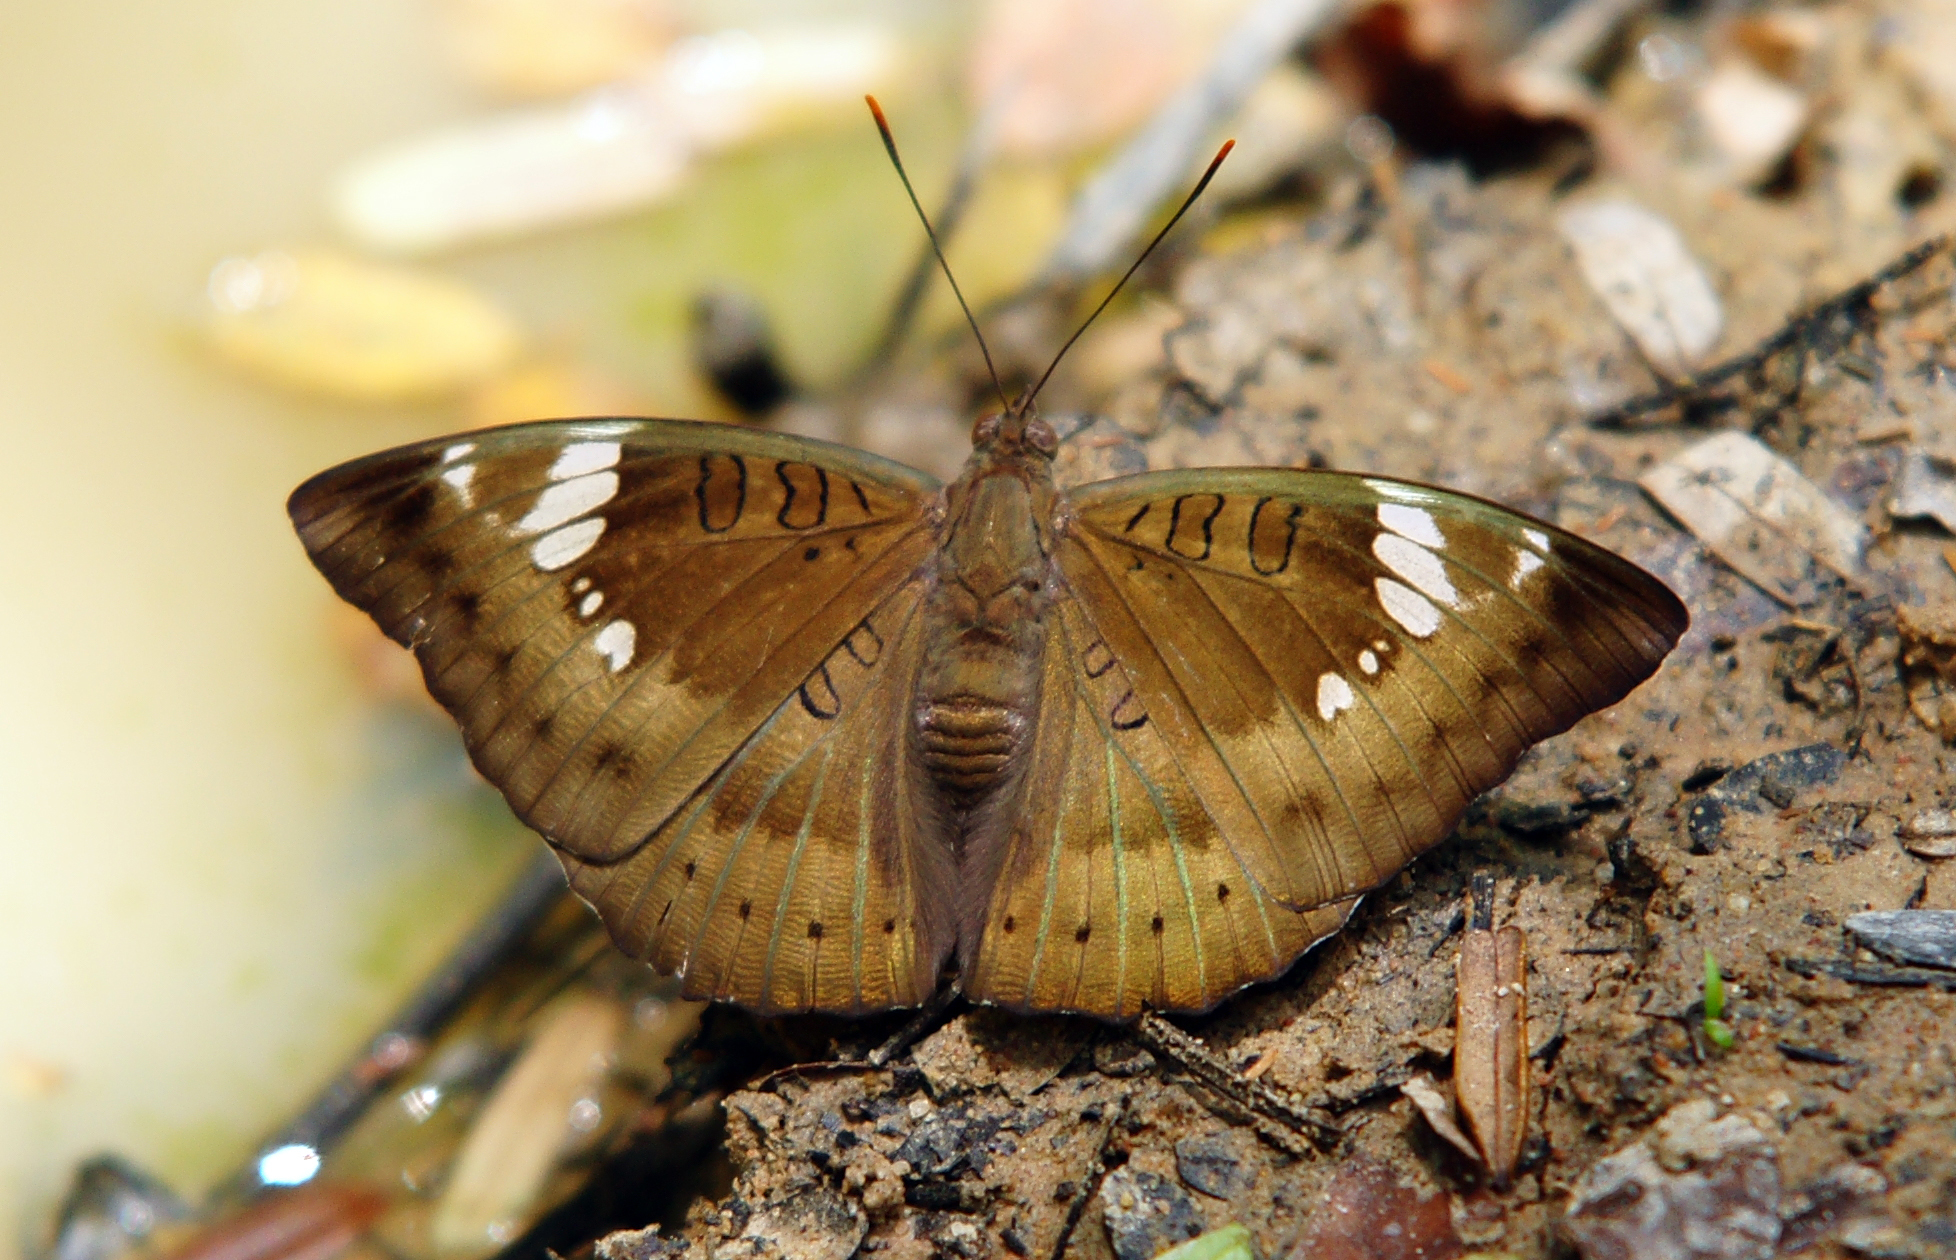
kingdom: Animalia
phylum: Arthropoda
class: Insecta
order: Lepidoptera
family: Nymphalidae
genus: Euthalia
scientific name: Euthalia aconthea
